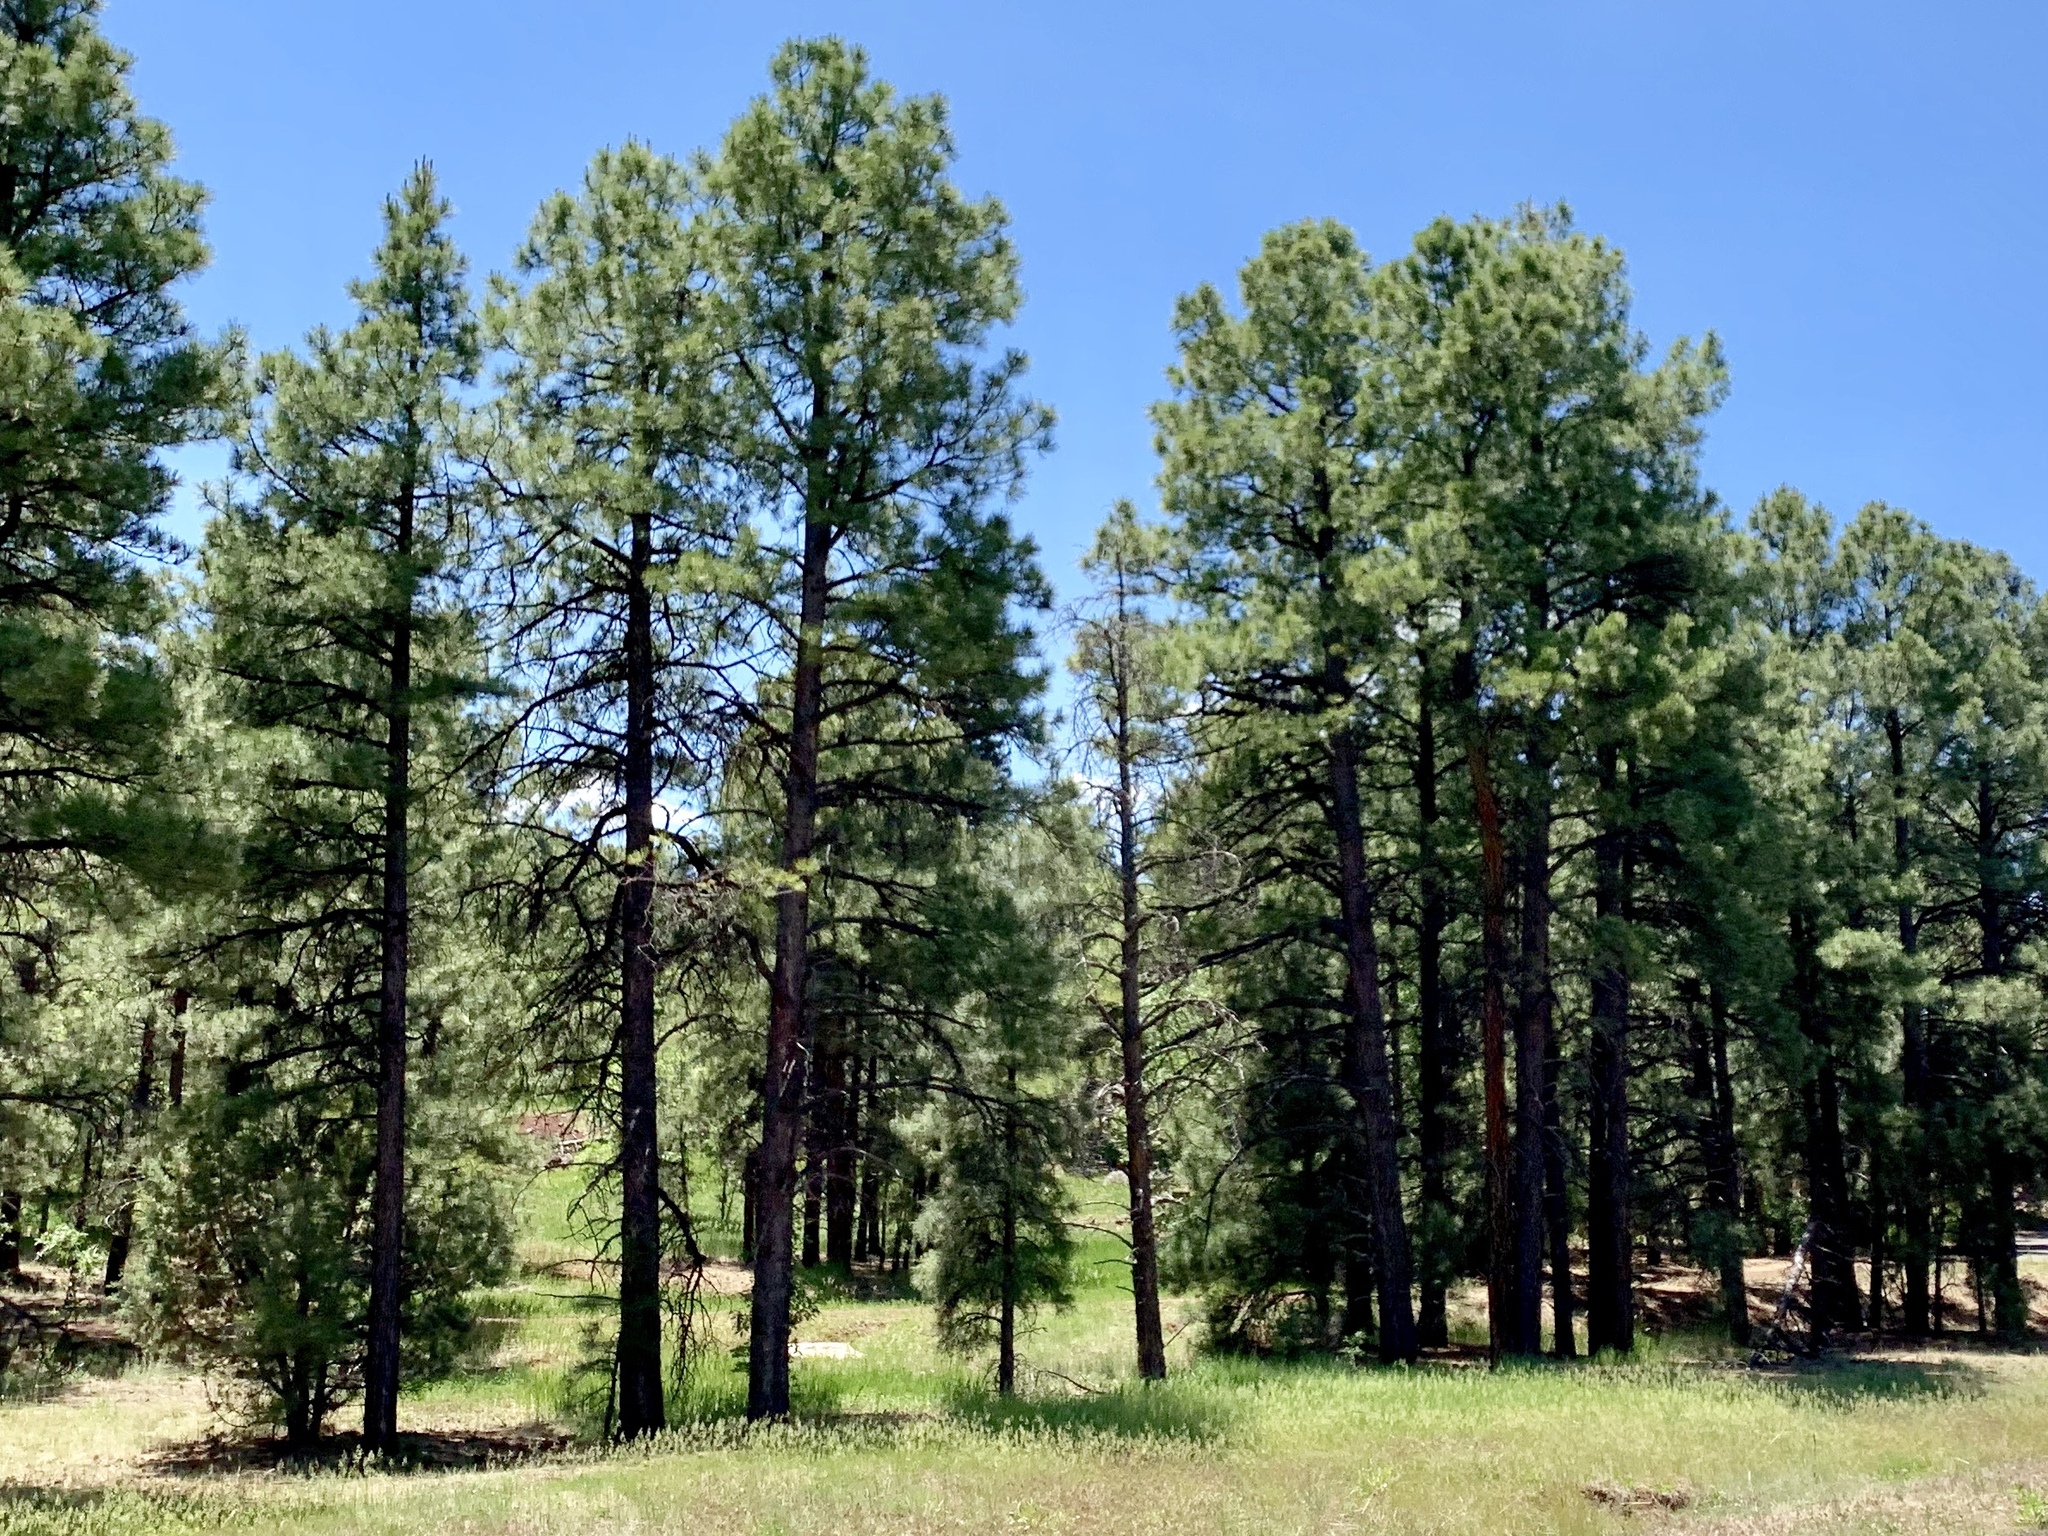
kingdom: Plantae
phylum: Tracheophyta
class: Pinopsida
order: Pinales
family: Pinaceae
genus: Pinus
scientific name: Pinus ponderosa
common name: Western yellow-pine
